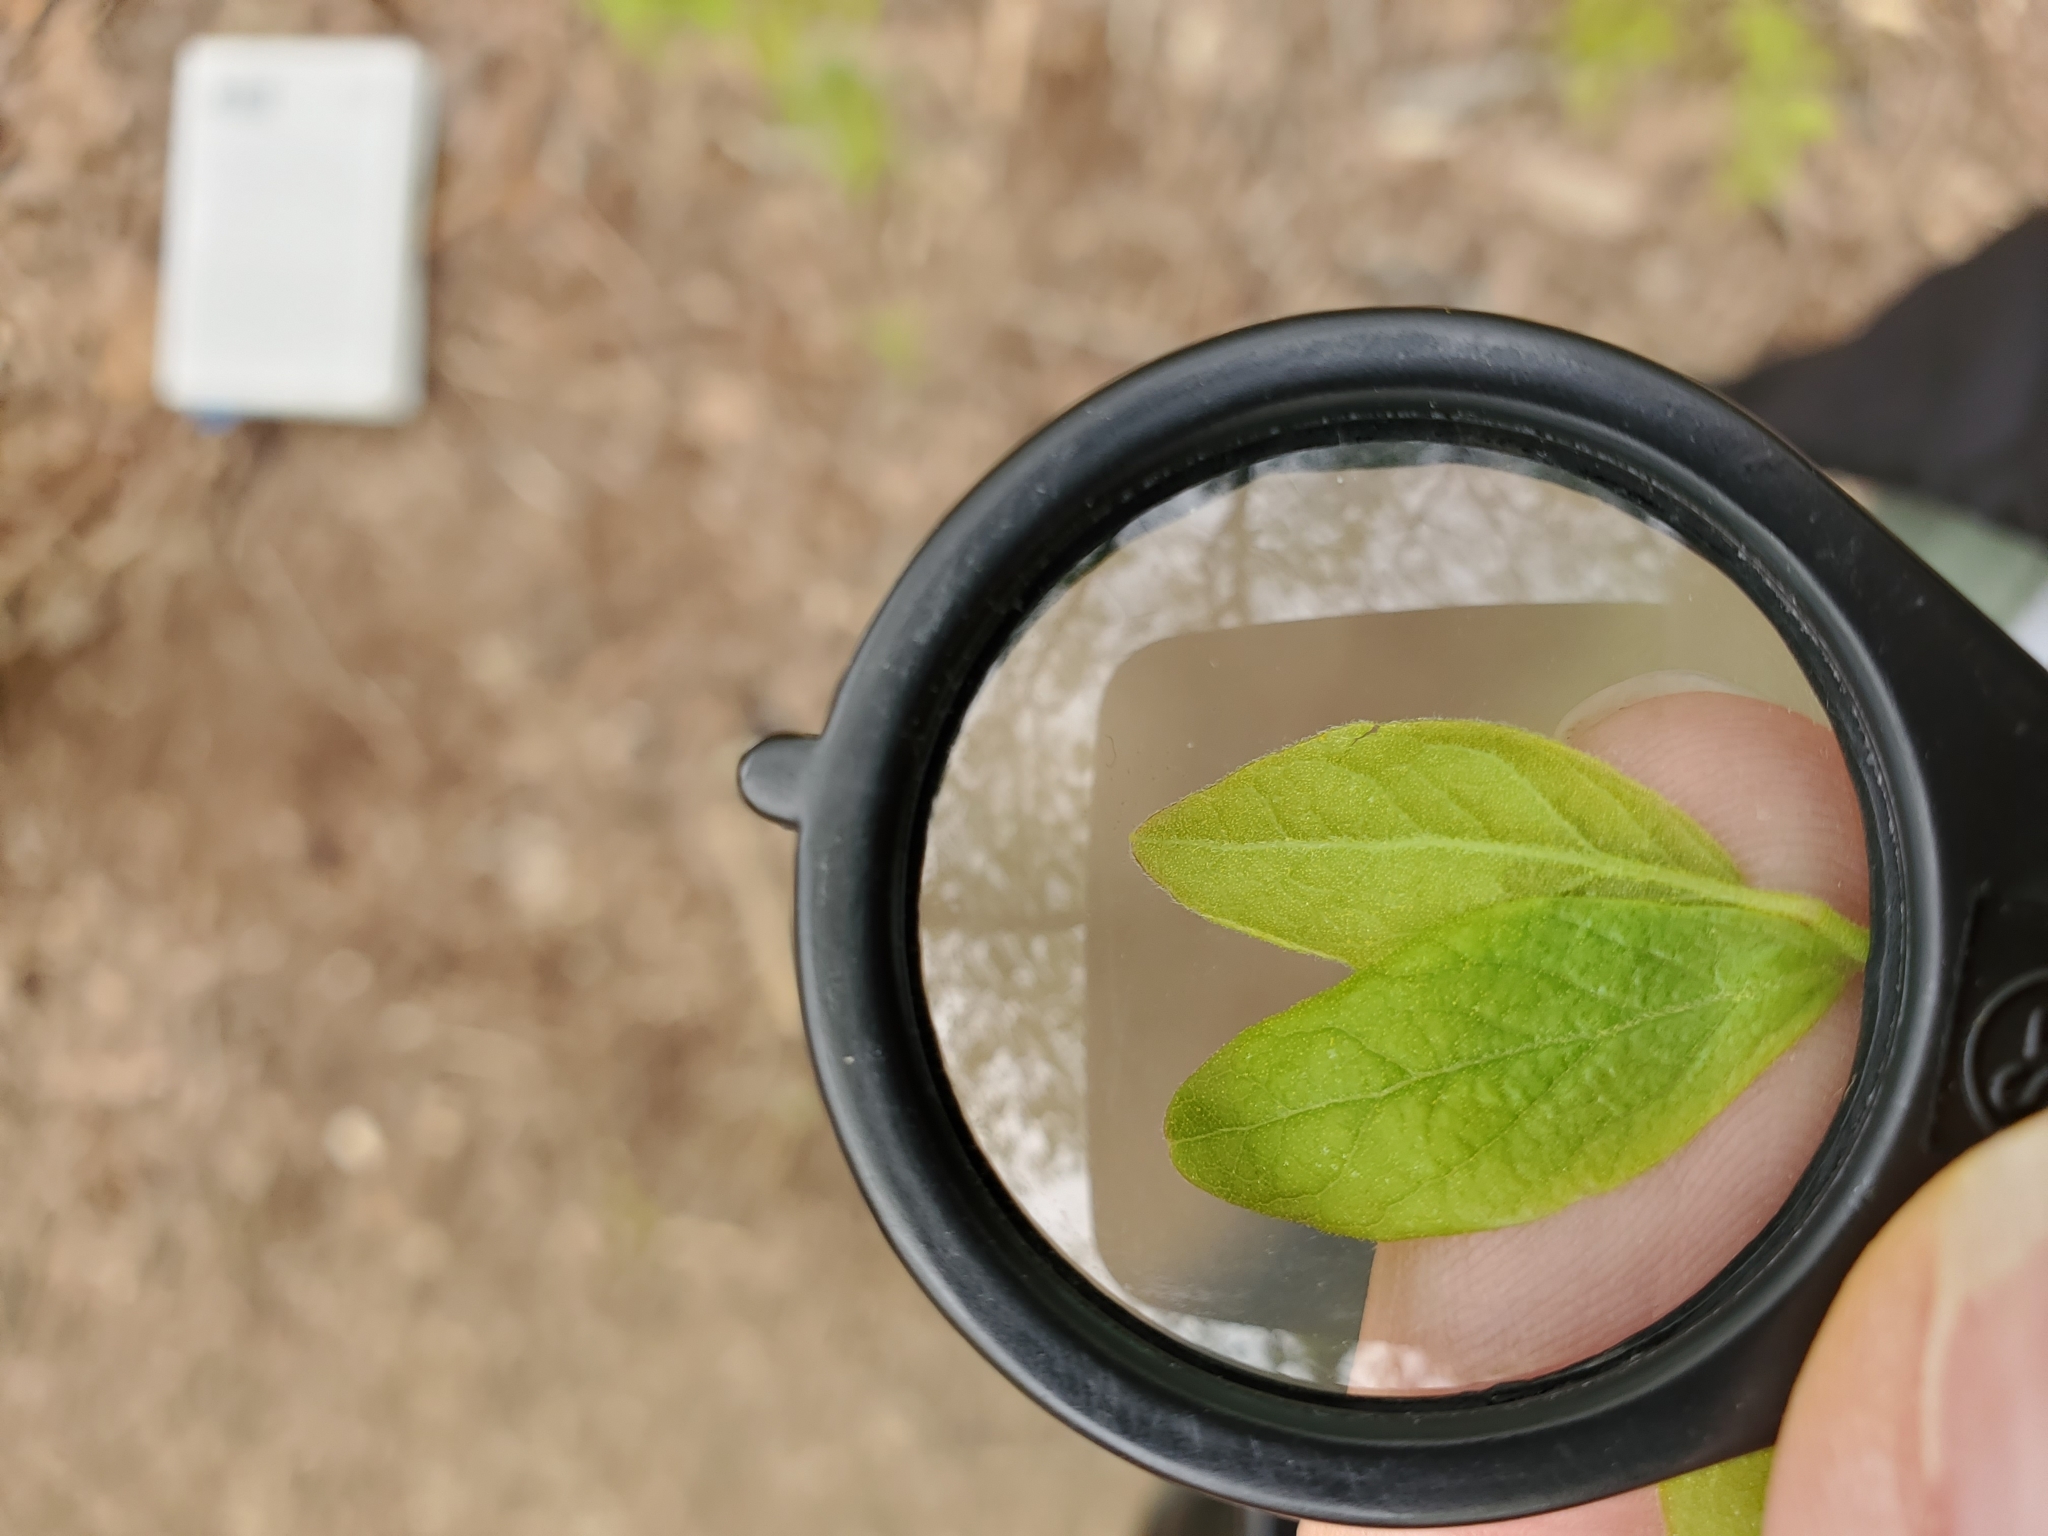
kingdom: Plantae
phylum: Tracheophyta
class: Magnoliopsida
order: Ericales
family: Ericaceae
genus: Gaylussacia
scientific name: Gaylussacia baccata
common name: Black huckleberry
